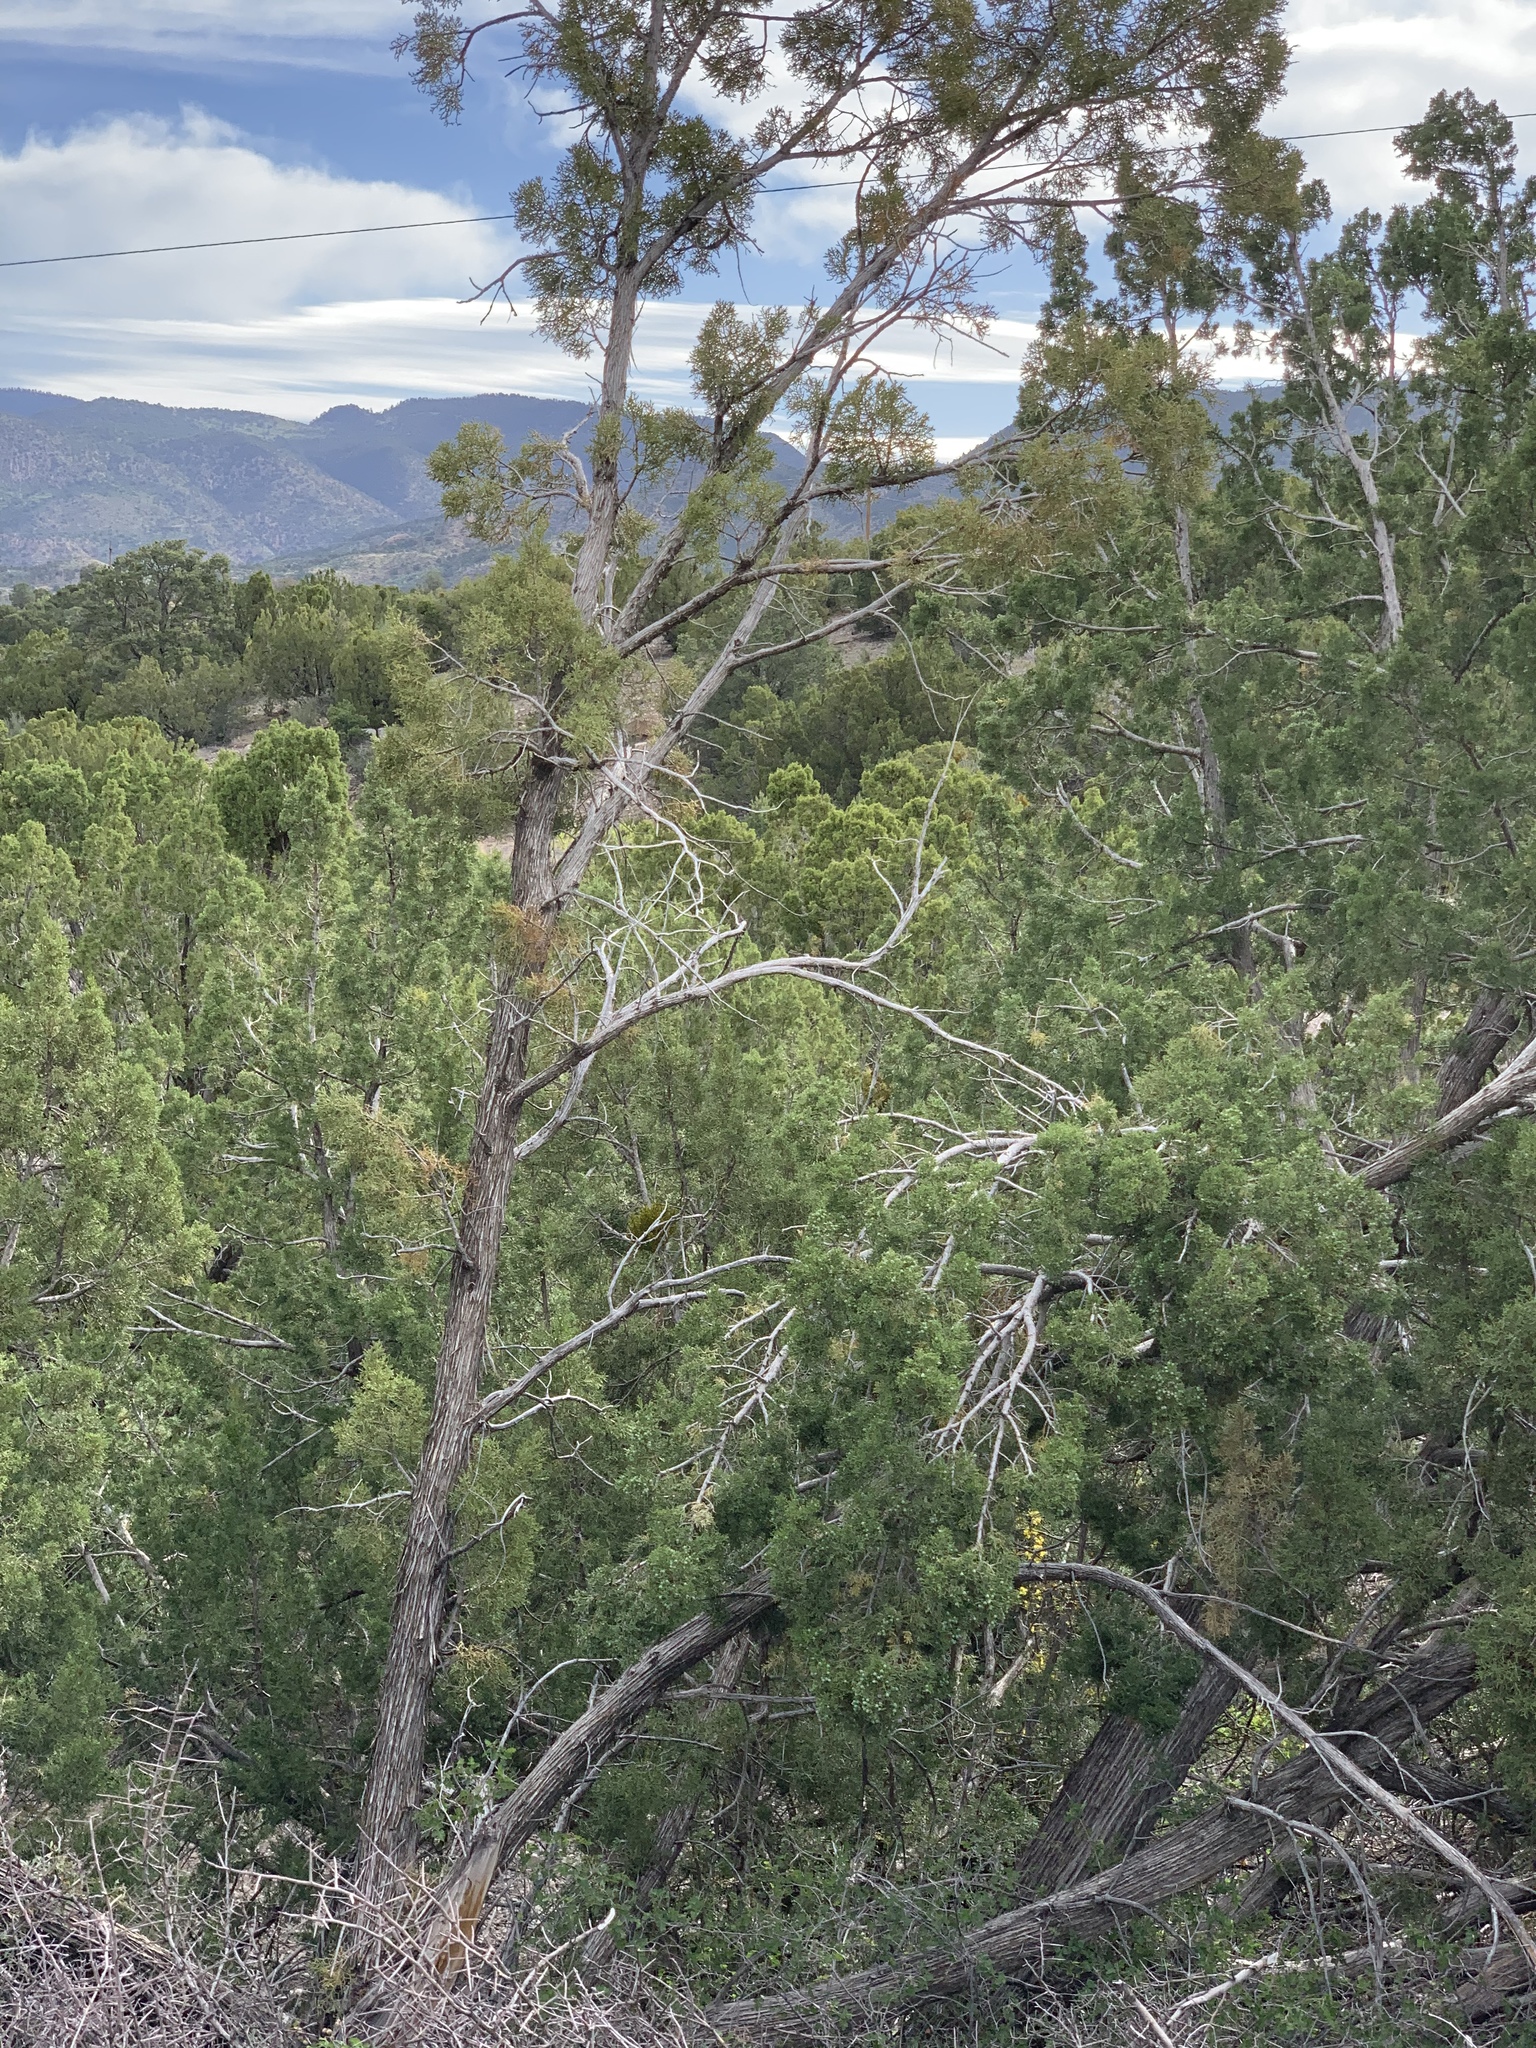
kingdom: Plantae
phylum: Tracheophyta
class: Pinopsida
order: Pinales
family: Cupressaceae
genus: Juniperus
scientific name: Juniperus monosperma
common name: One-seed juniper
